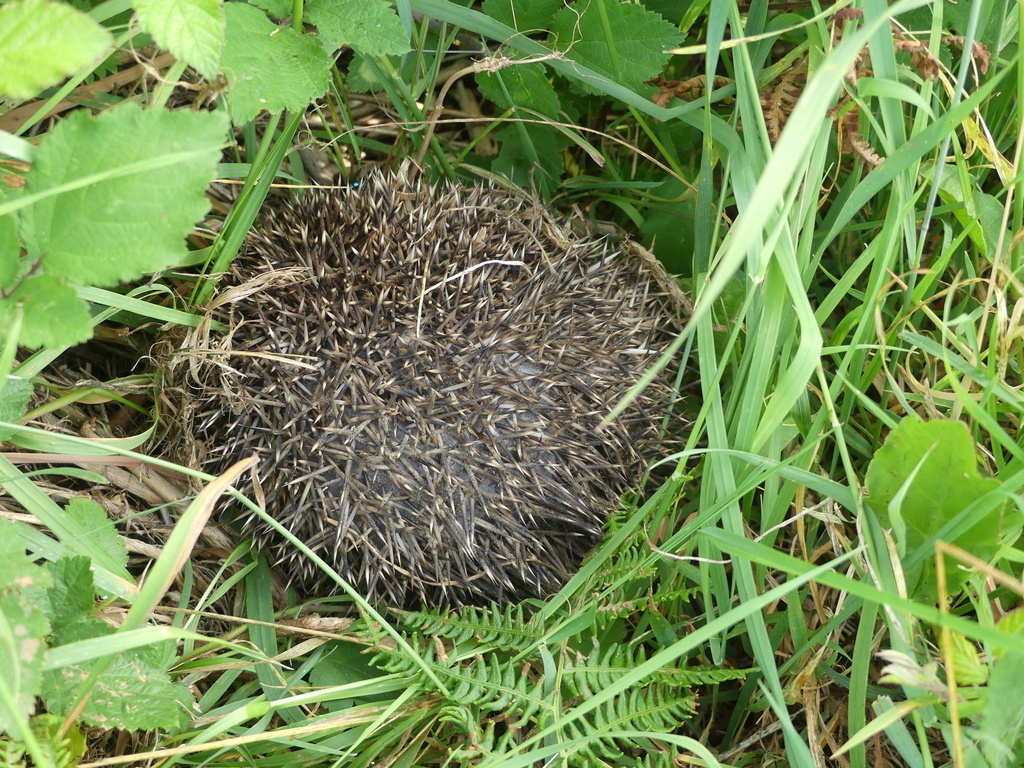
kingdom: Animalia
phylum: Chordata
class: Mammalia
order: Erinaceomorpha
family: Erinaceidae
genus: Erinaceus
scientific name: Erinaceus europaeus
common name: West european hedgehog
